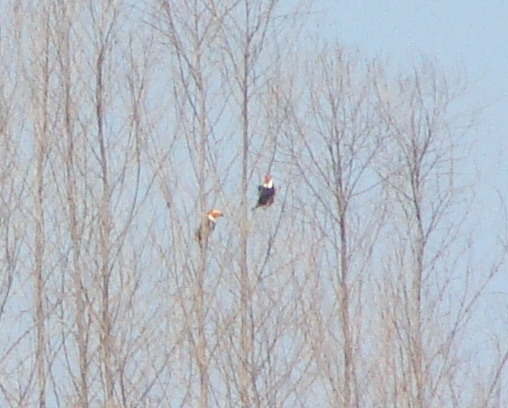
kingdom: Animalia
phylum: Chordata
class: Aves
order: Piciformes
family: Ramphastidae
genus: Ramphastos
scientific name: Ramphastos toco
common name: Toco toucan
